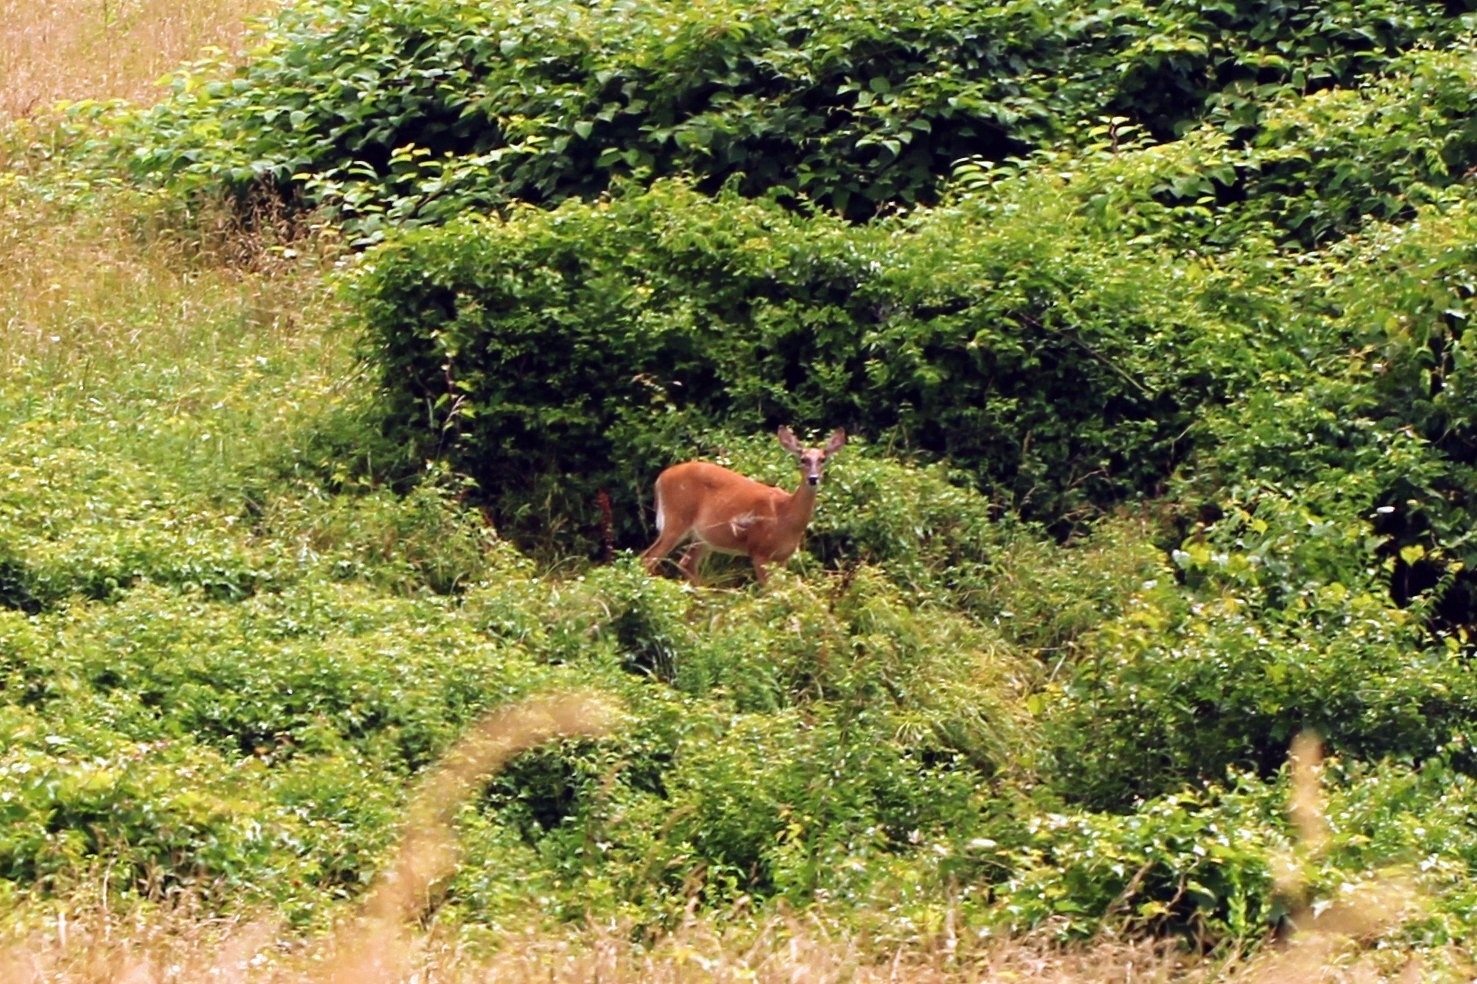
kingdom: Animalia
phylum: Chordata
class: Mammalia
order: Artiodactyla
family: Cervidae
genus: Odocoileus
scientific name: Odocoileus virginianus
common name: White-tailed deer
